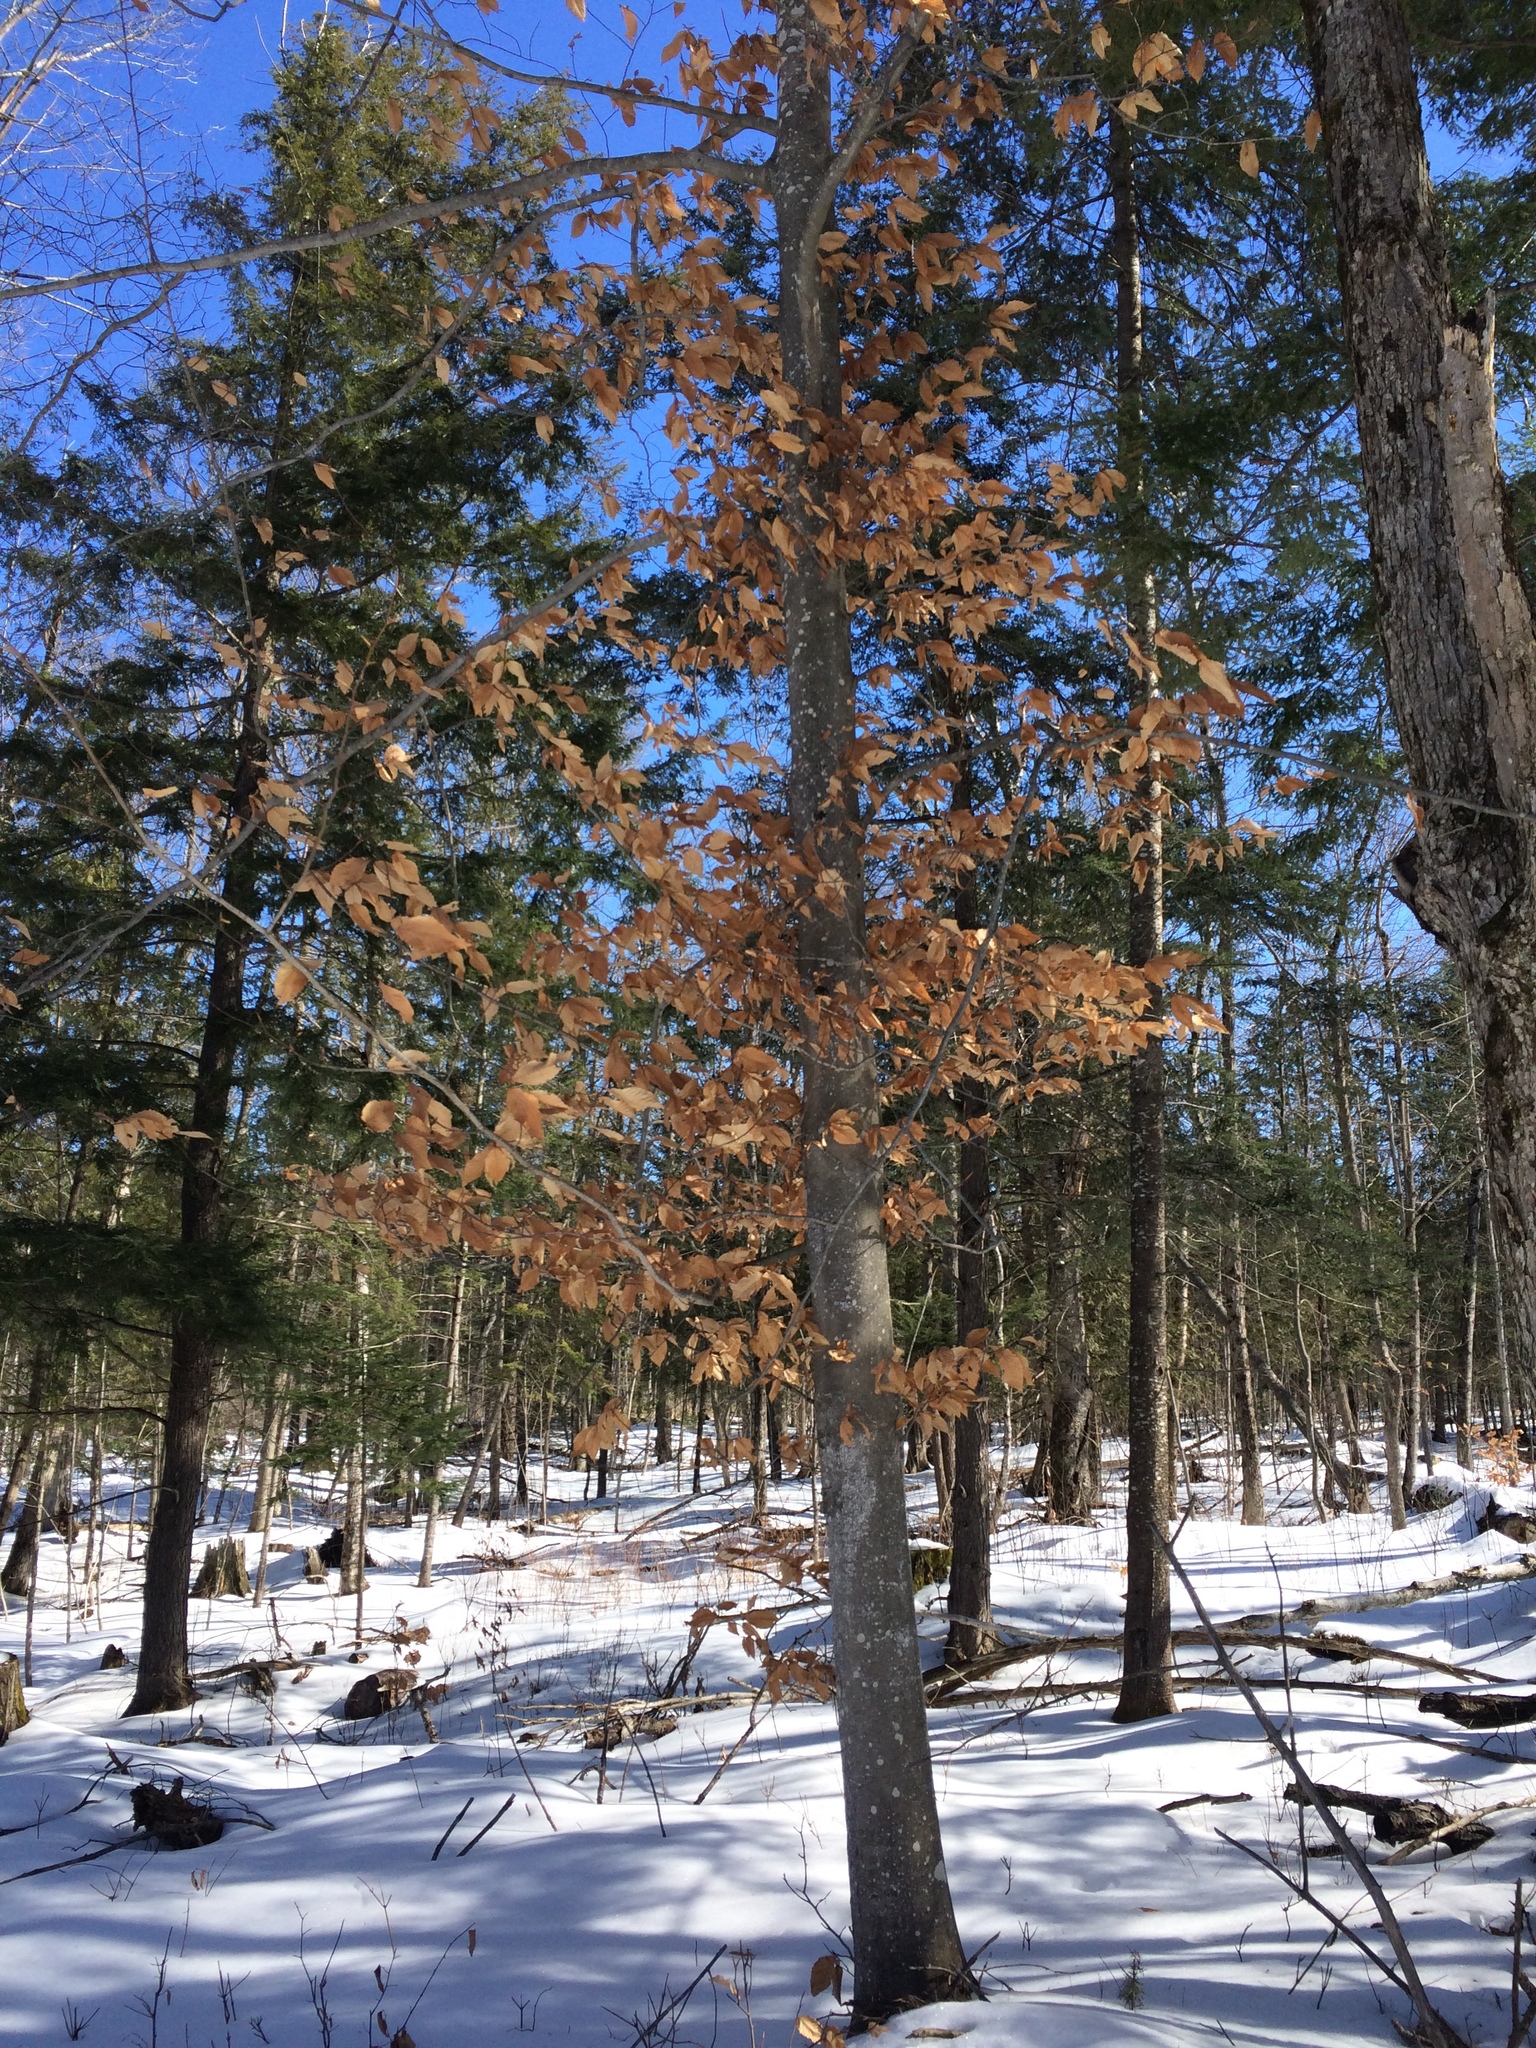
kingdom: Plantae
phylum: Tracheophyta
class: Magnoliopsida
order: Fagales
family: Fagaceae
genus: Fagus
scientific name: Fagus grandifolia
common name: American beech
